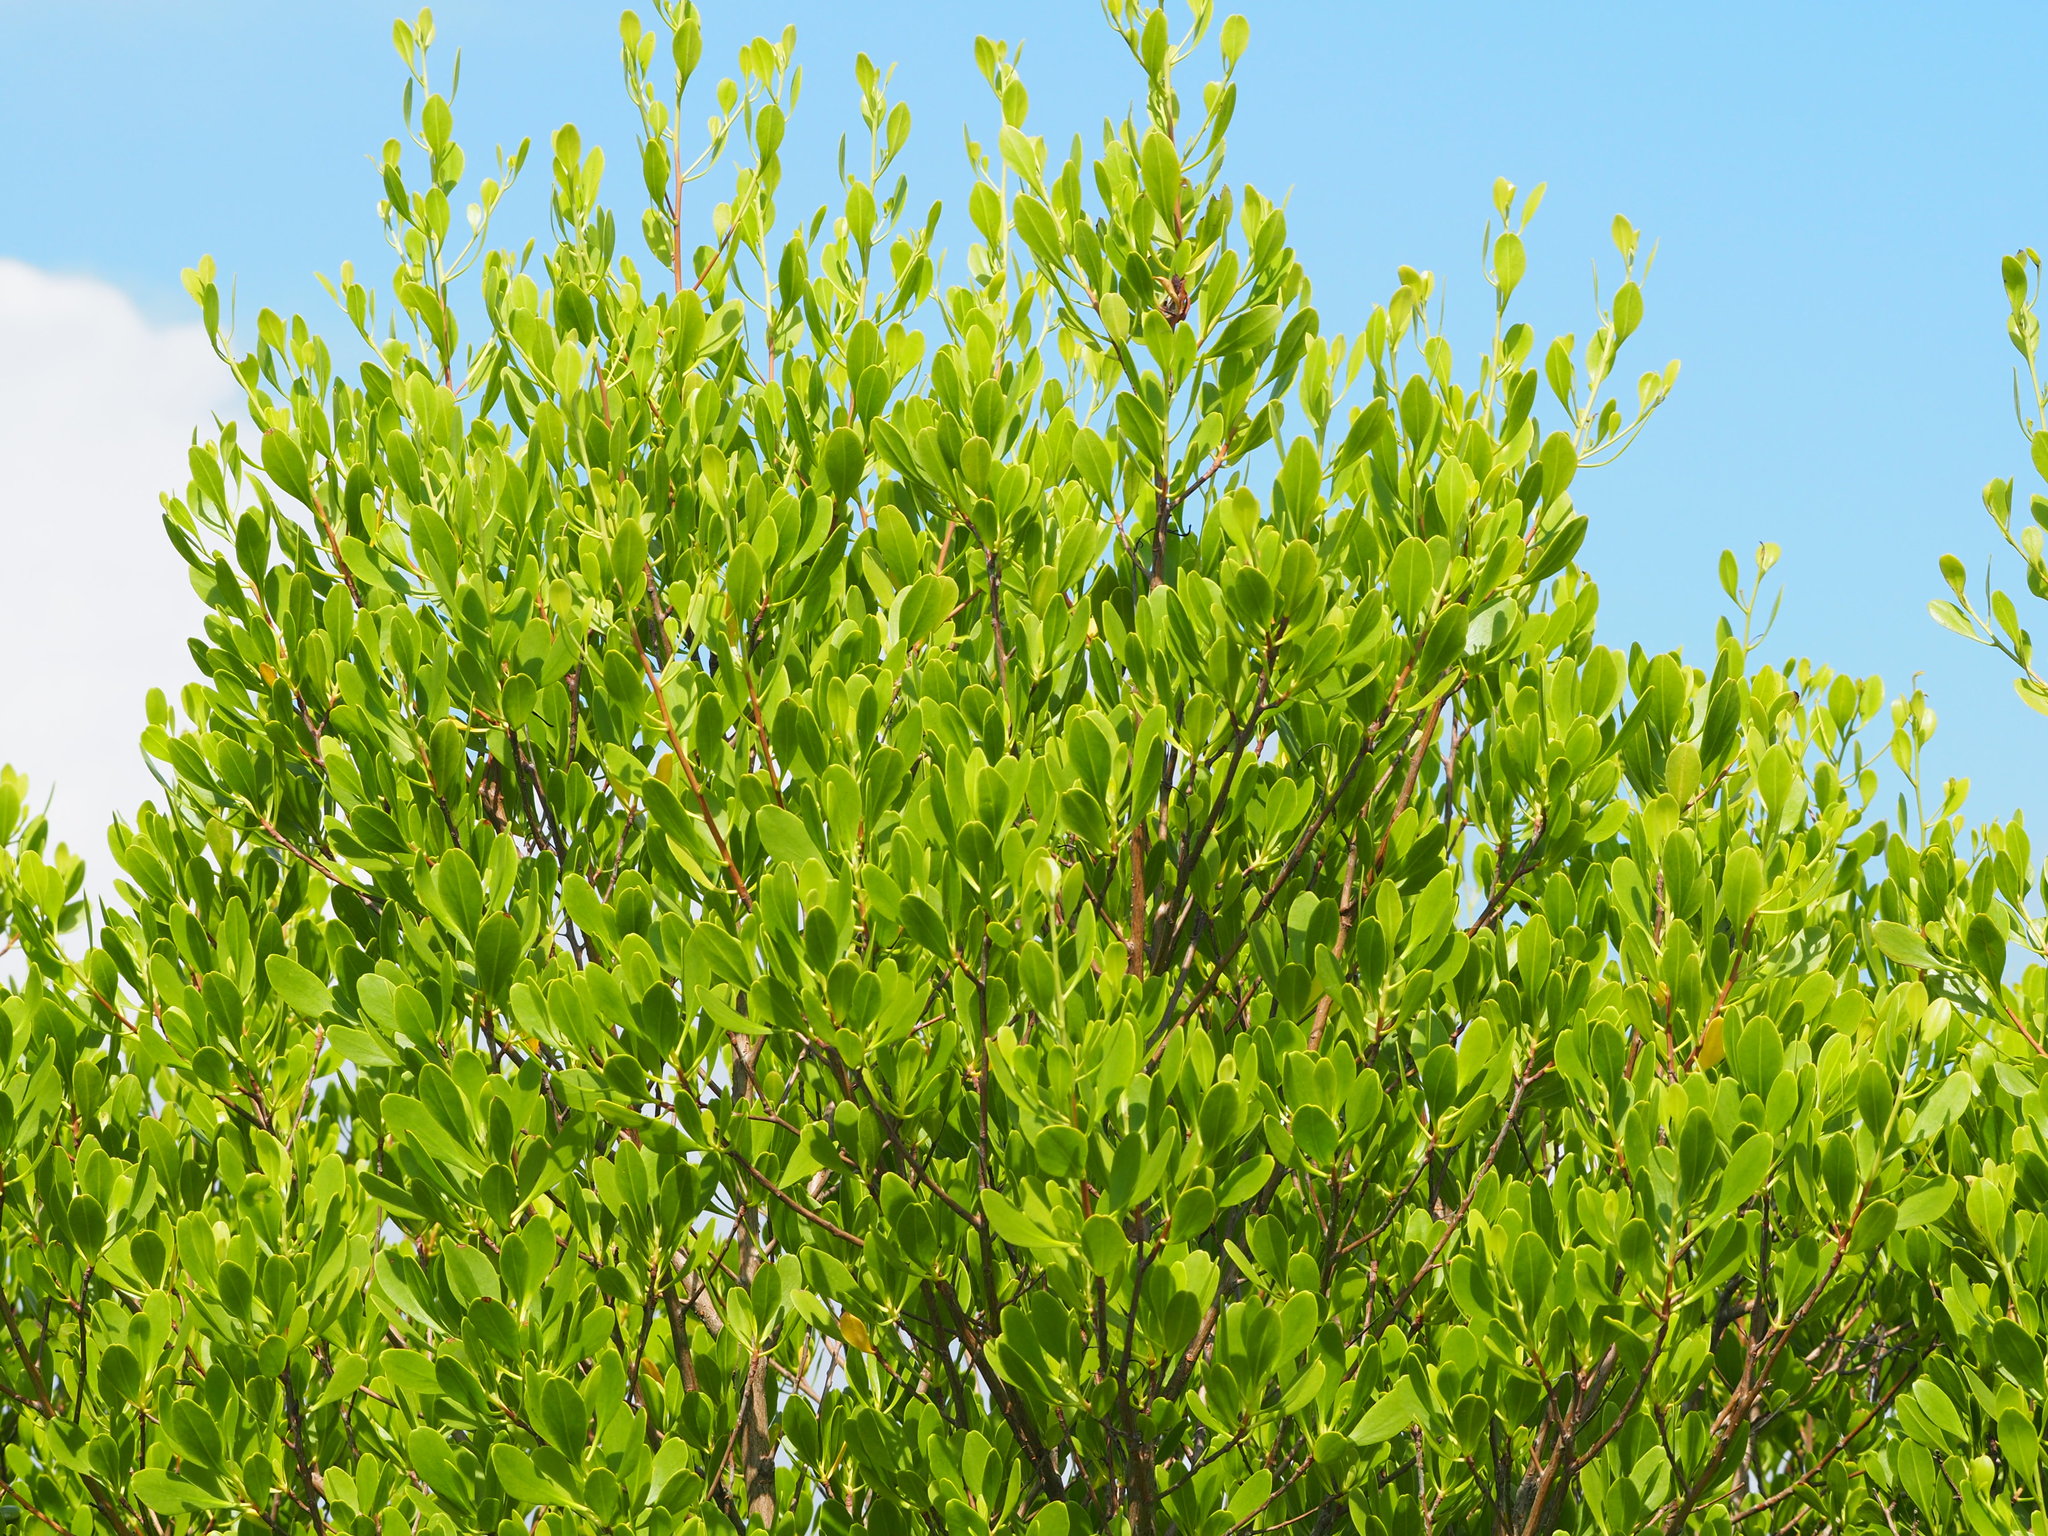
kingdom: Plantae
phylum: Tracheophyta
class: Magnoliopsida
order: Myrtales
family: Combretaceae
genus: Lumnitzera
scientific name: Lumnitzera racemosa
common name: White-flowered black mangrove
